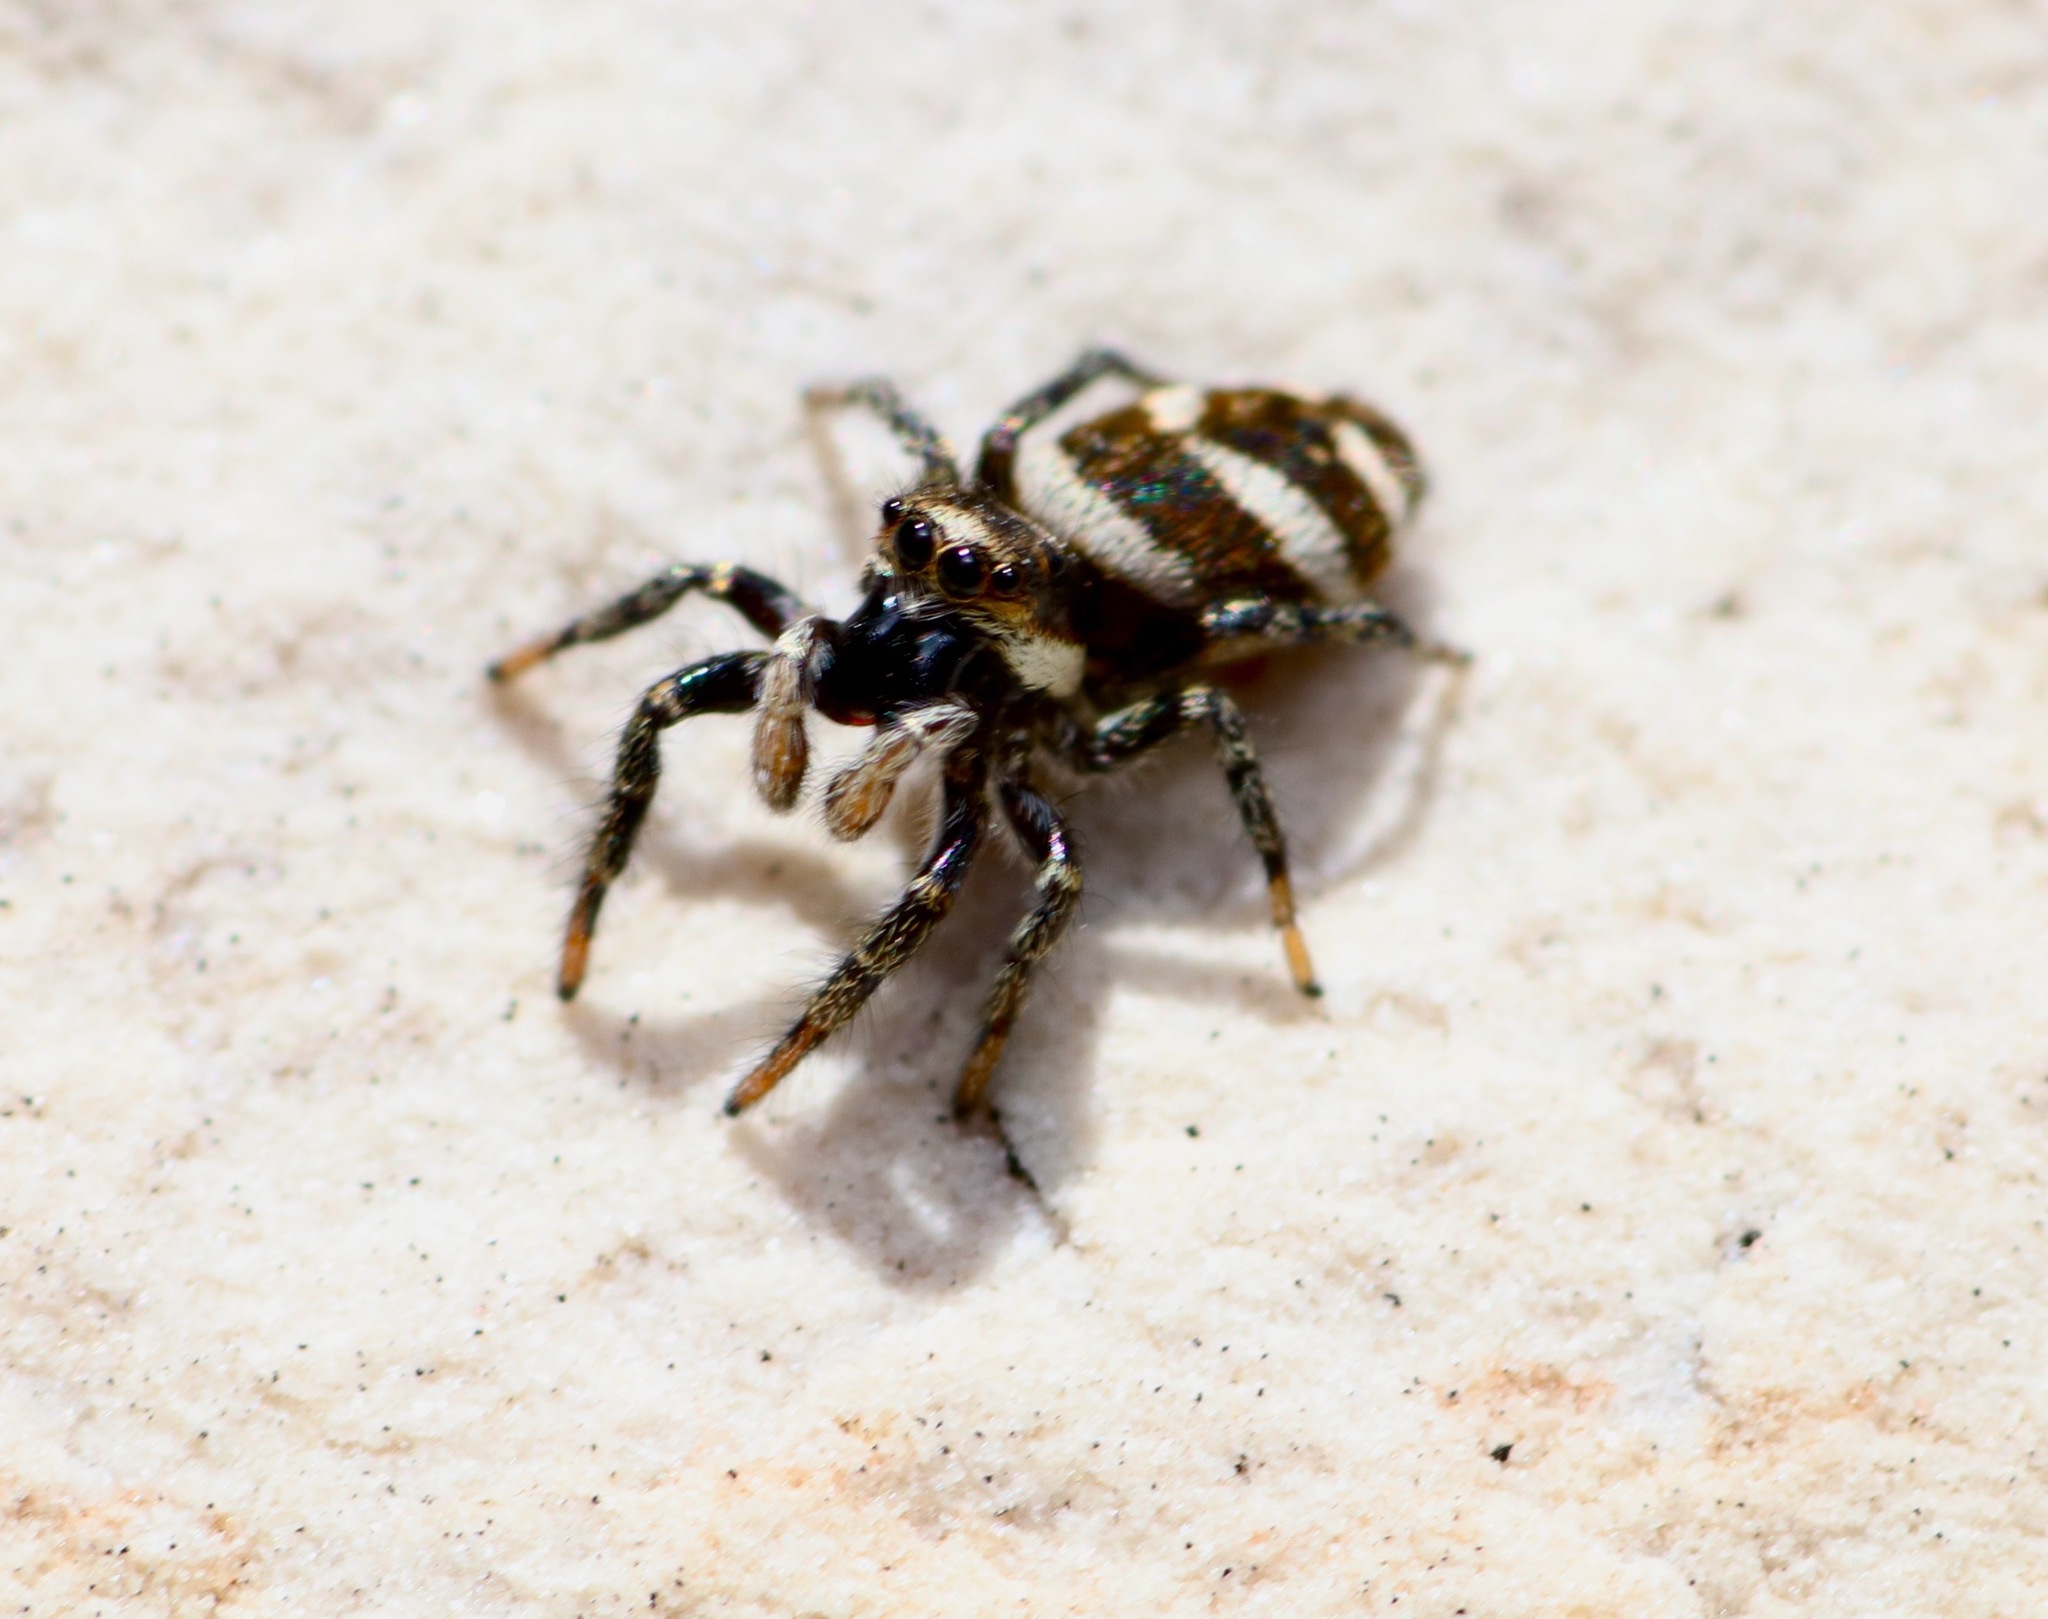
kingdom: Animalia
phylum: Arthropoda
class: Arachnida
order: Araneae
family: Salticidae
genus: Salticus
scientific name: Salticus scenicus
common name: Zebra jumper
